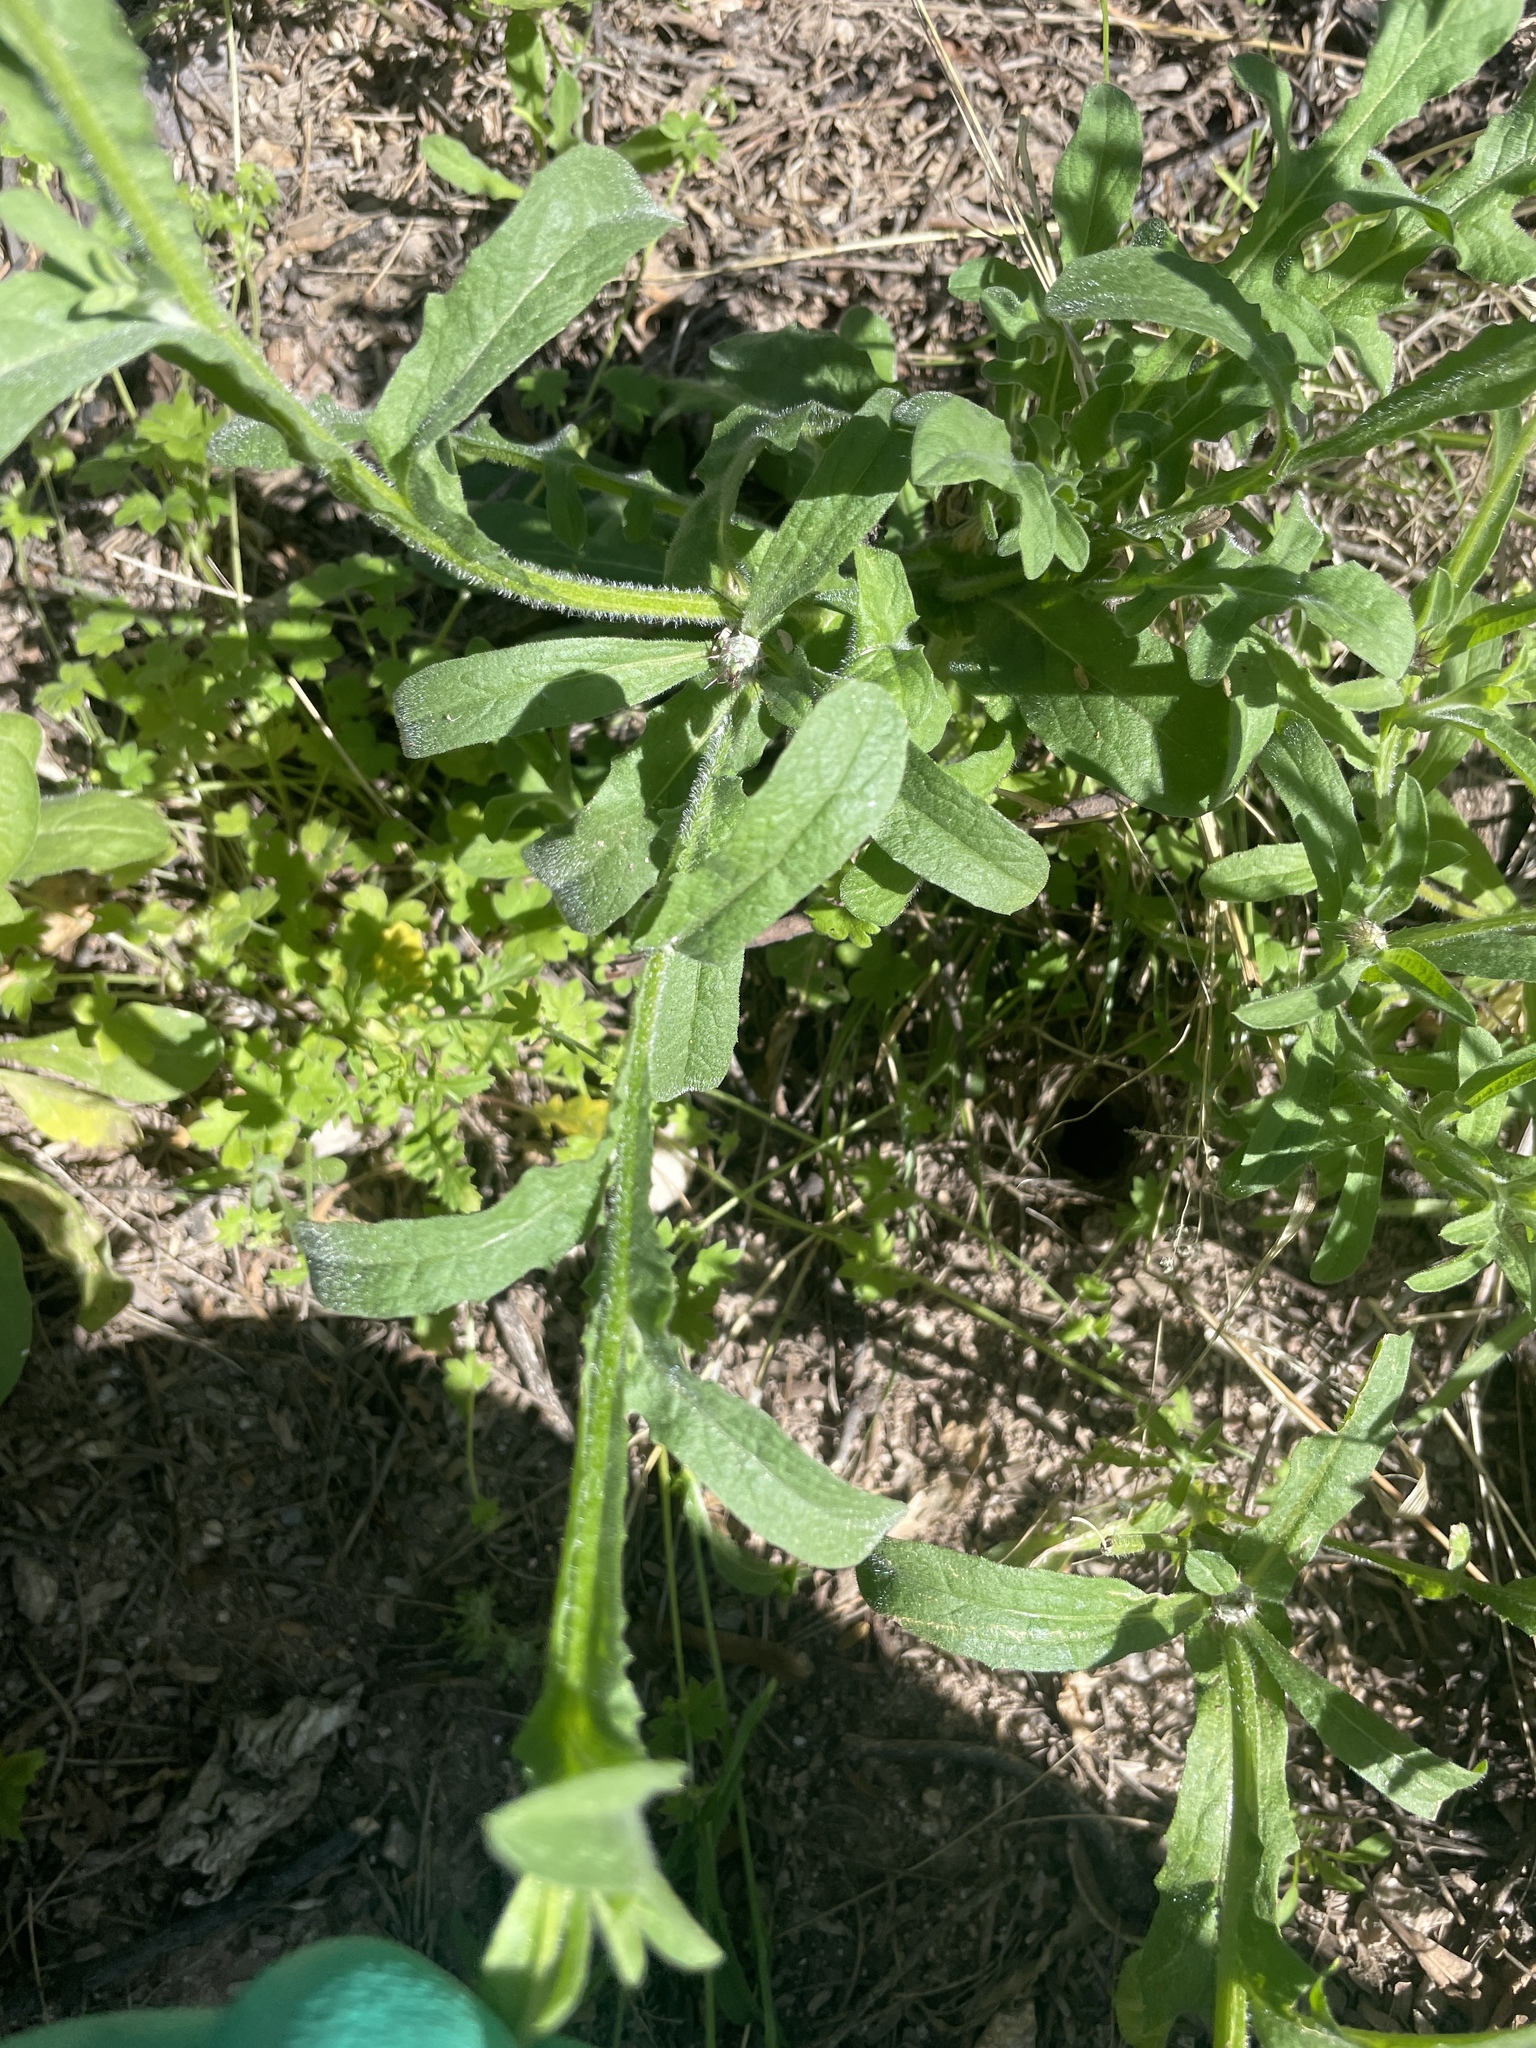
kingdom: Plantae
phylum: Tracheophyta
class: Magnoliopsida
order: Asterales
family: Asteraceae
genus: Centaurea
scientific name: Centaurea melitensis
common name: Maltese star-thistle
